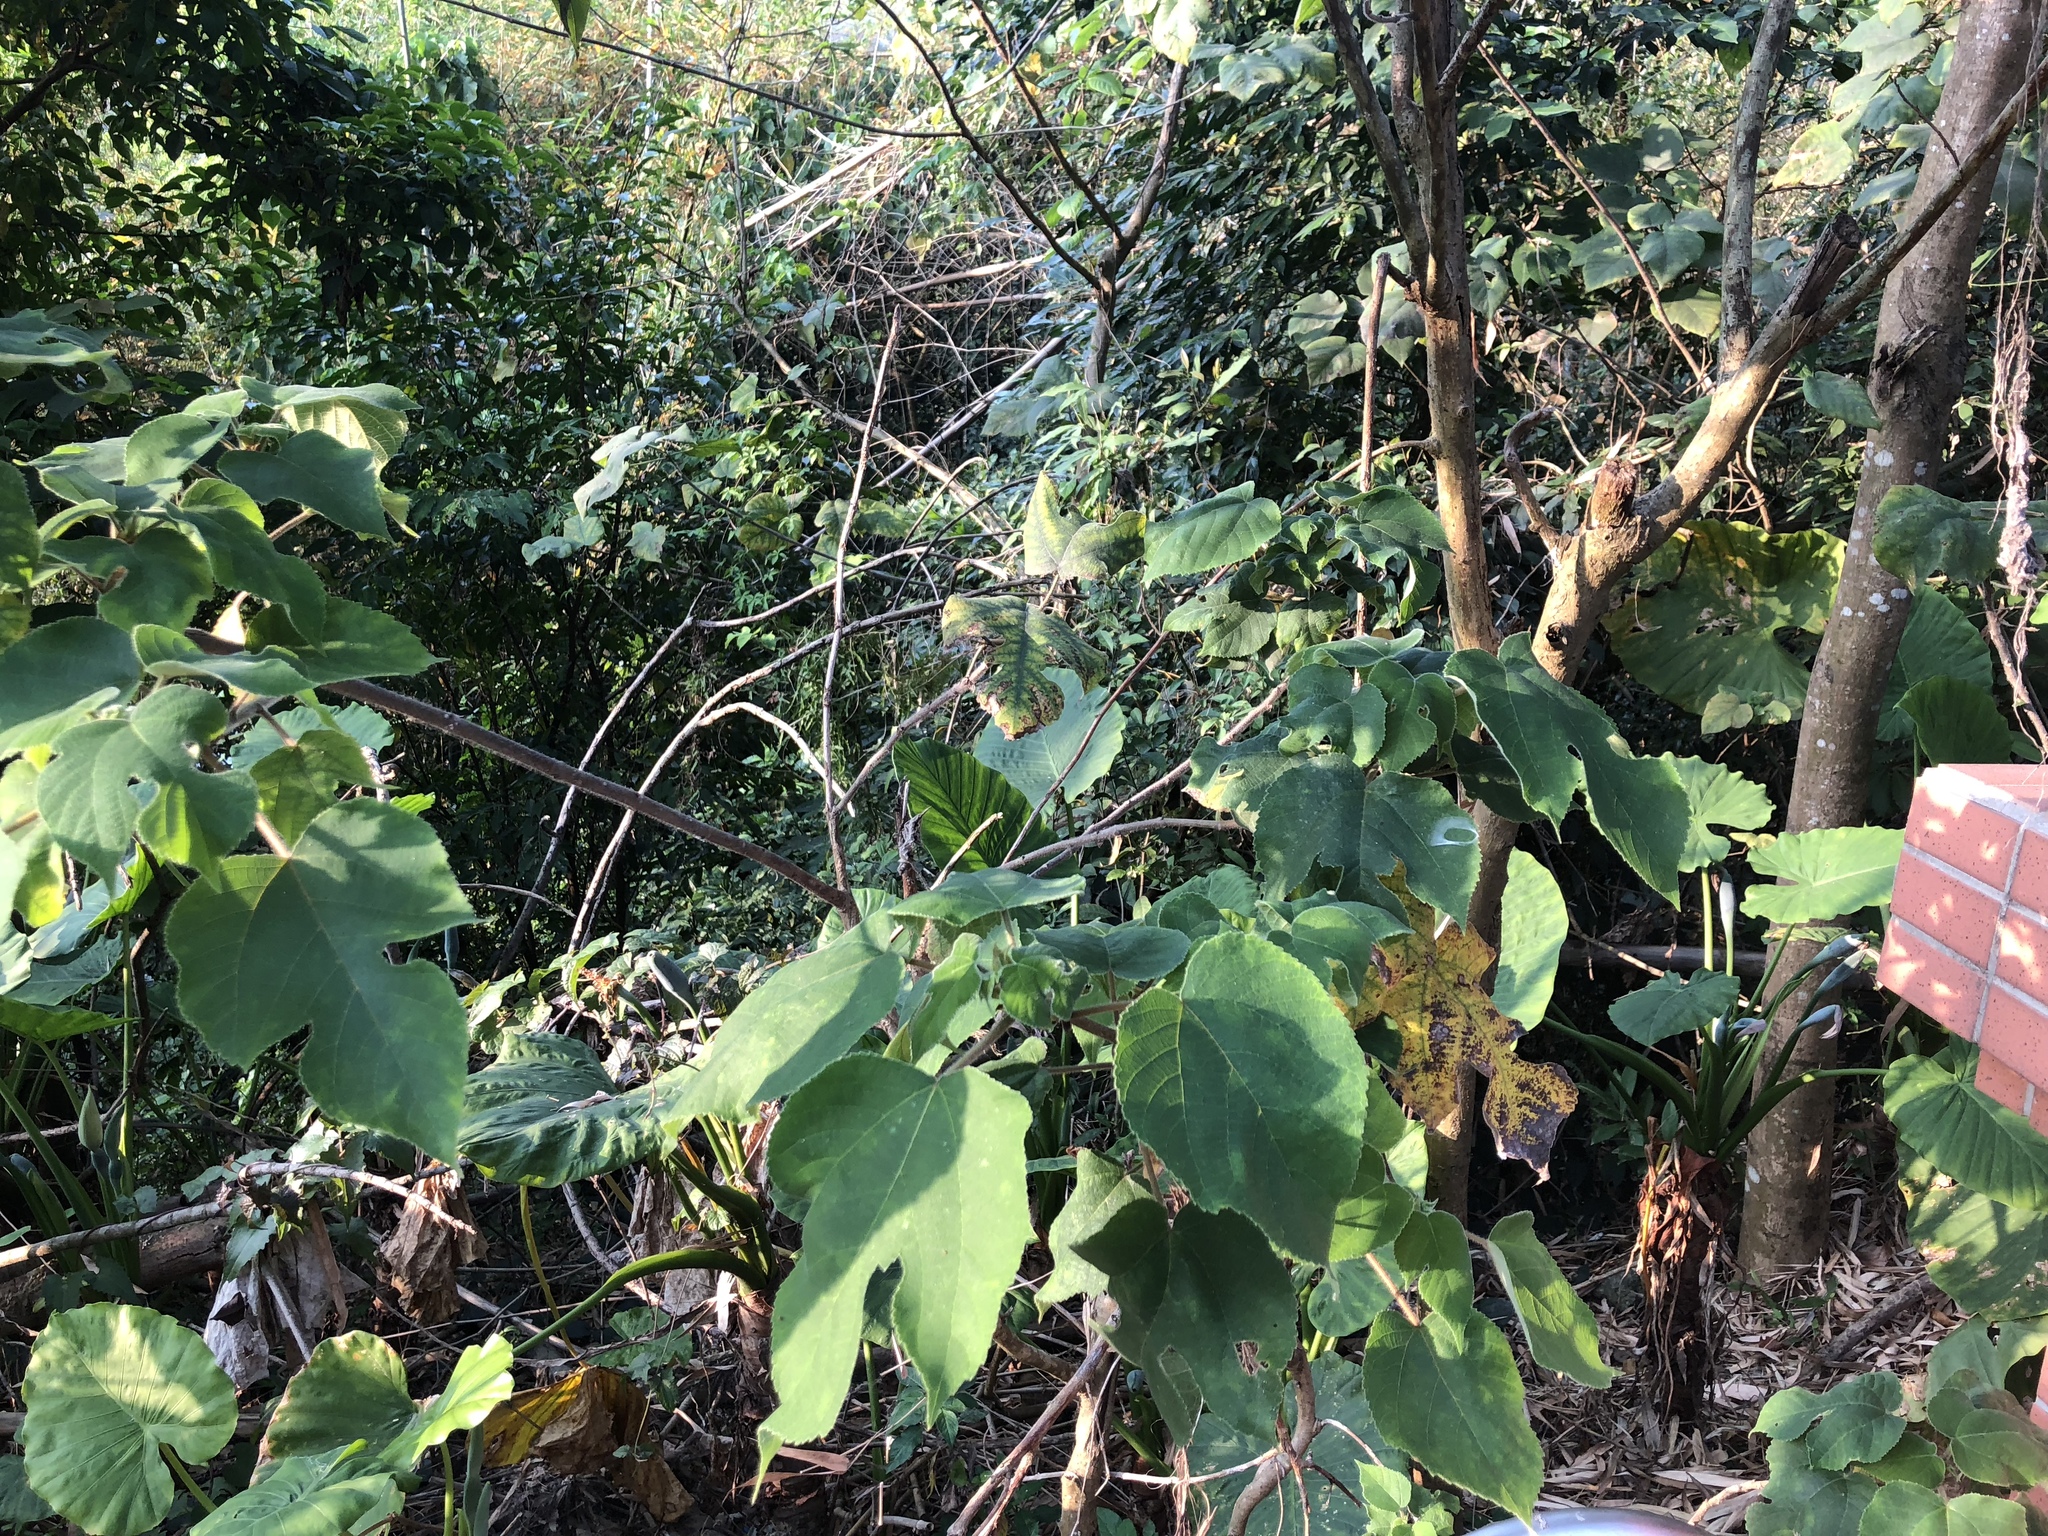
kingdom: Plantae
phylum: Tracheophyta
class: Magnoliopsida
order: Rosales
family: Moraceae
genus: Broussonetia
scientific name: Broussonetia papyrifera
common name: Paper mulberry
